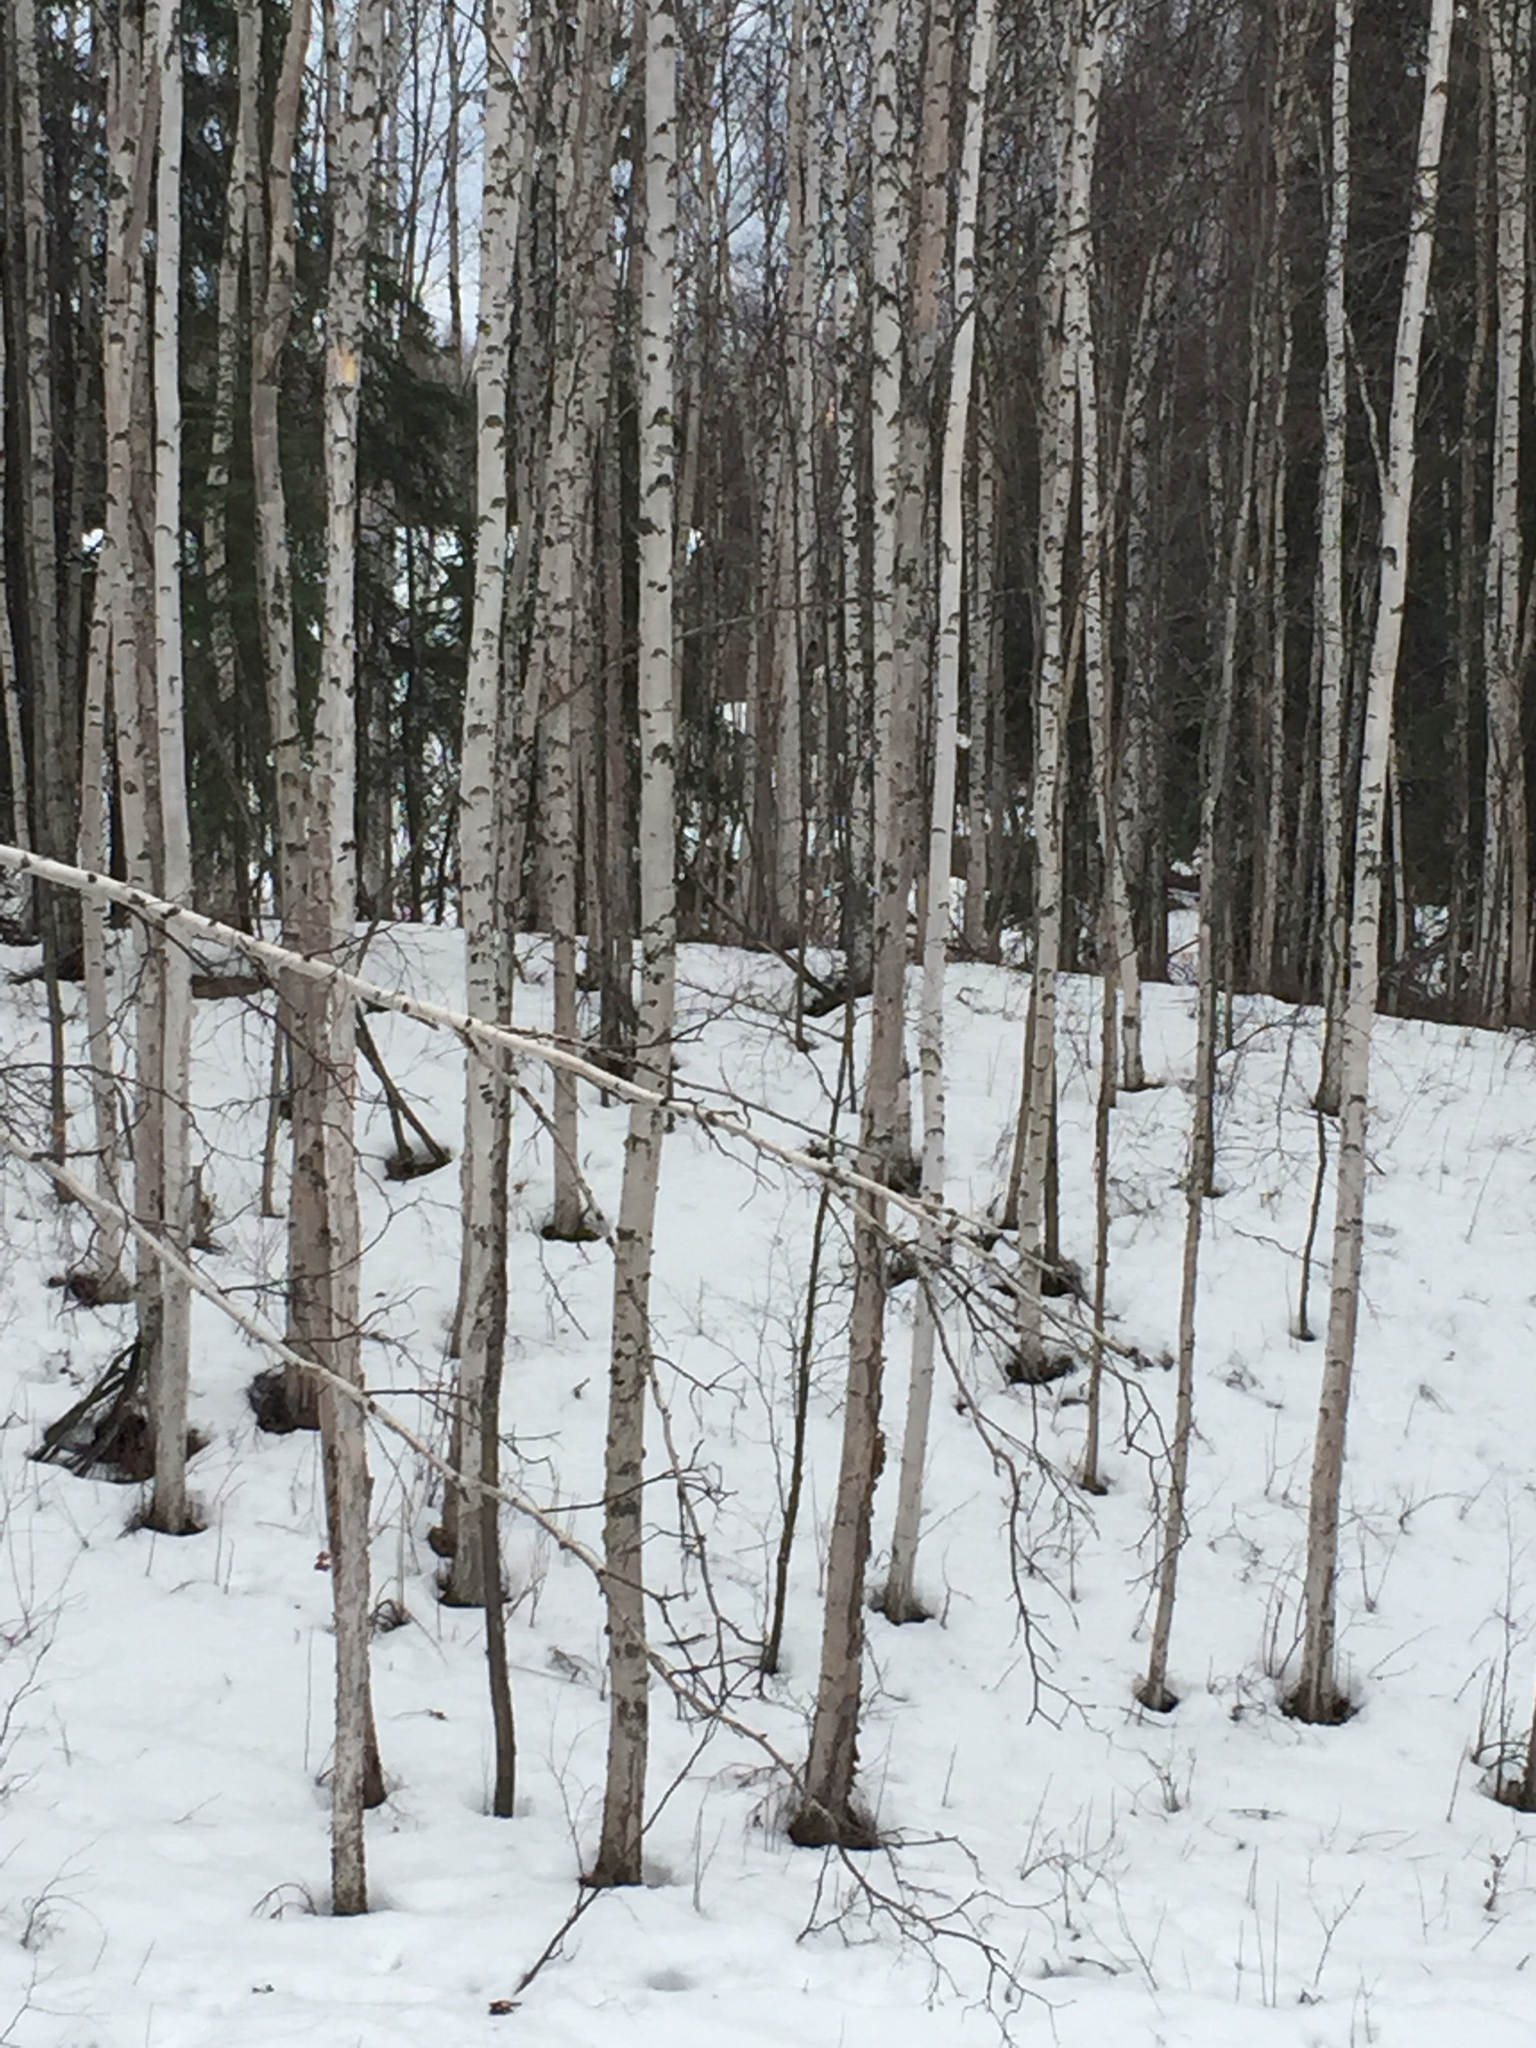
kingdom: Plantae
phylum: Tracheophyta
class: Magnoliopsida
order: Fagales
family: Betulaceae
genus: Betula
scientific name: Betula pendula
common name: Silver birch
